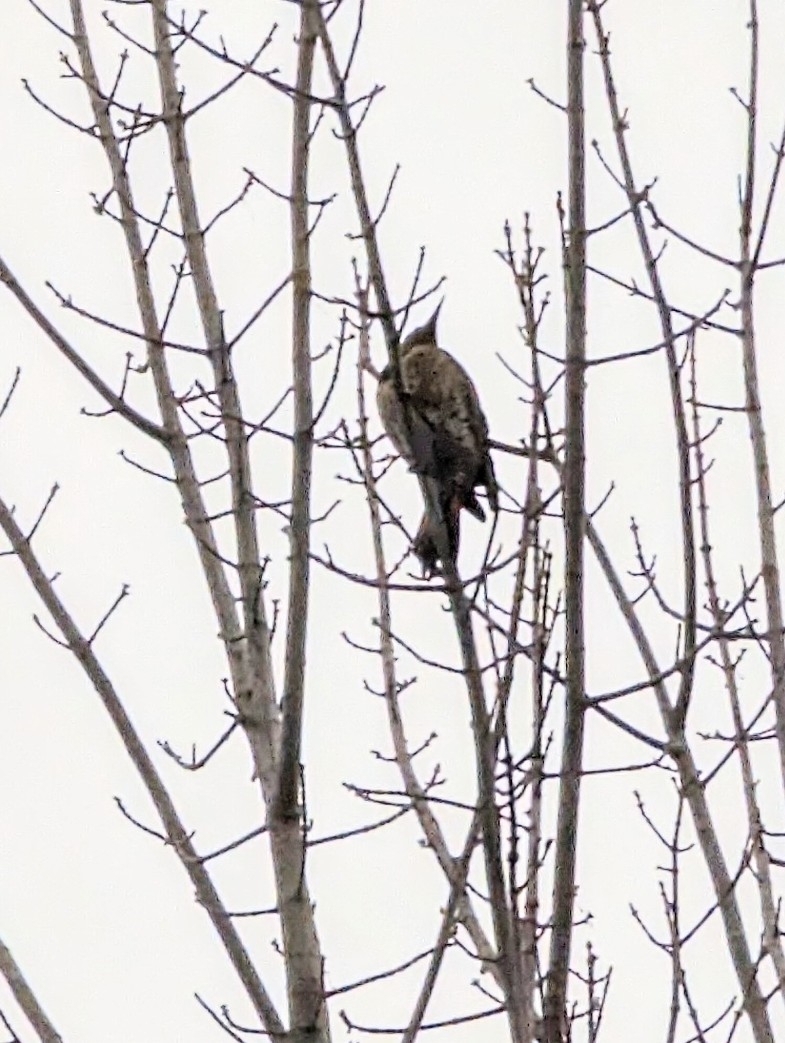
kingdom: Animalia
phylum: Chordata
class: Aves
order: Piciformes
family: Picidae
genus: Colaptes
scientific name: Colaptes auratus
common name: Northern flicker
